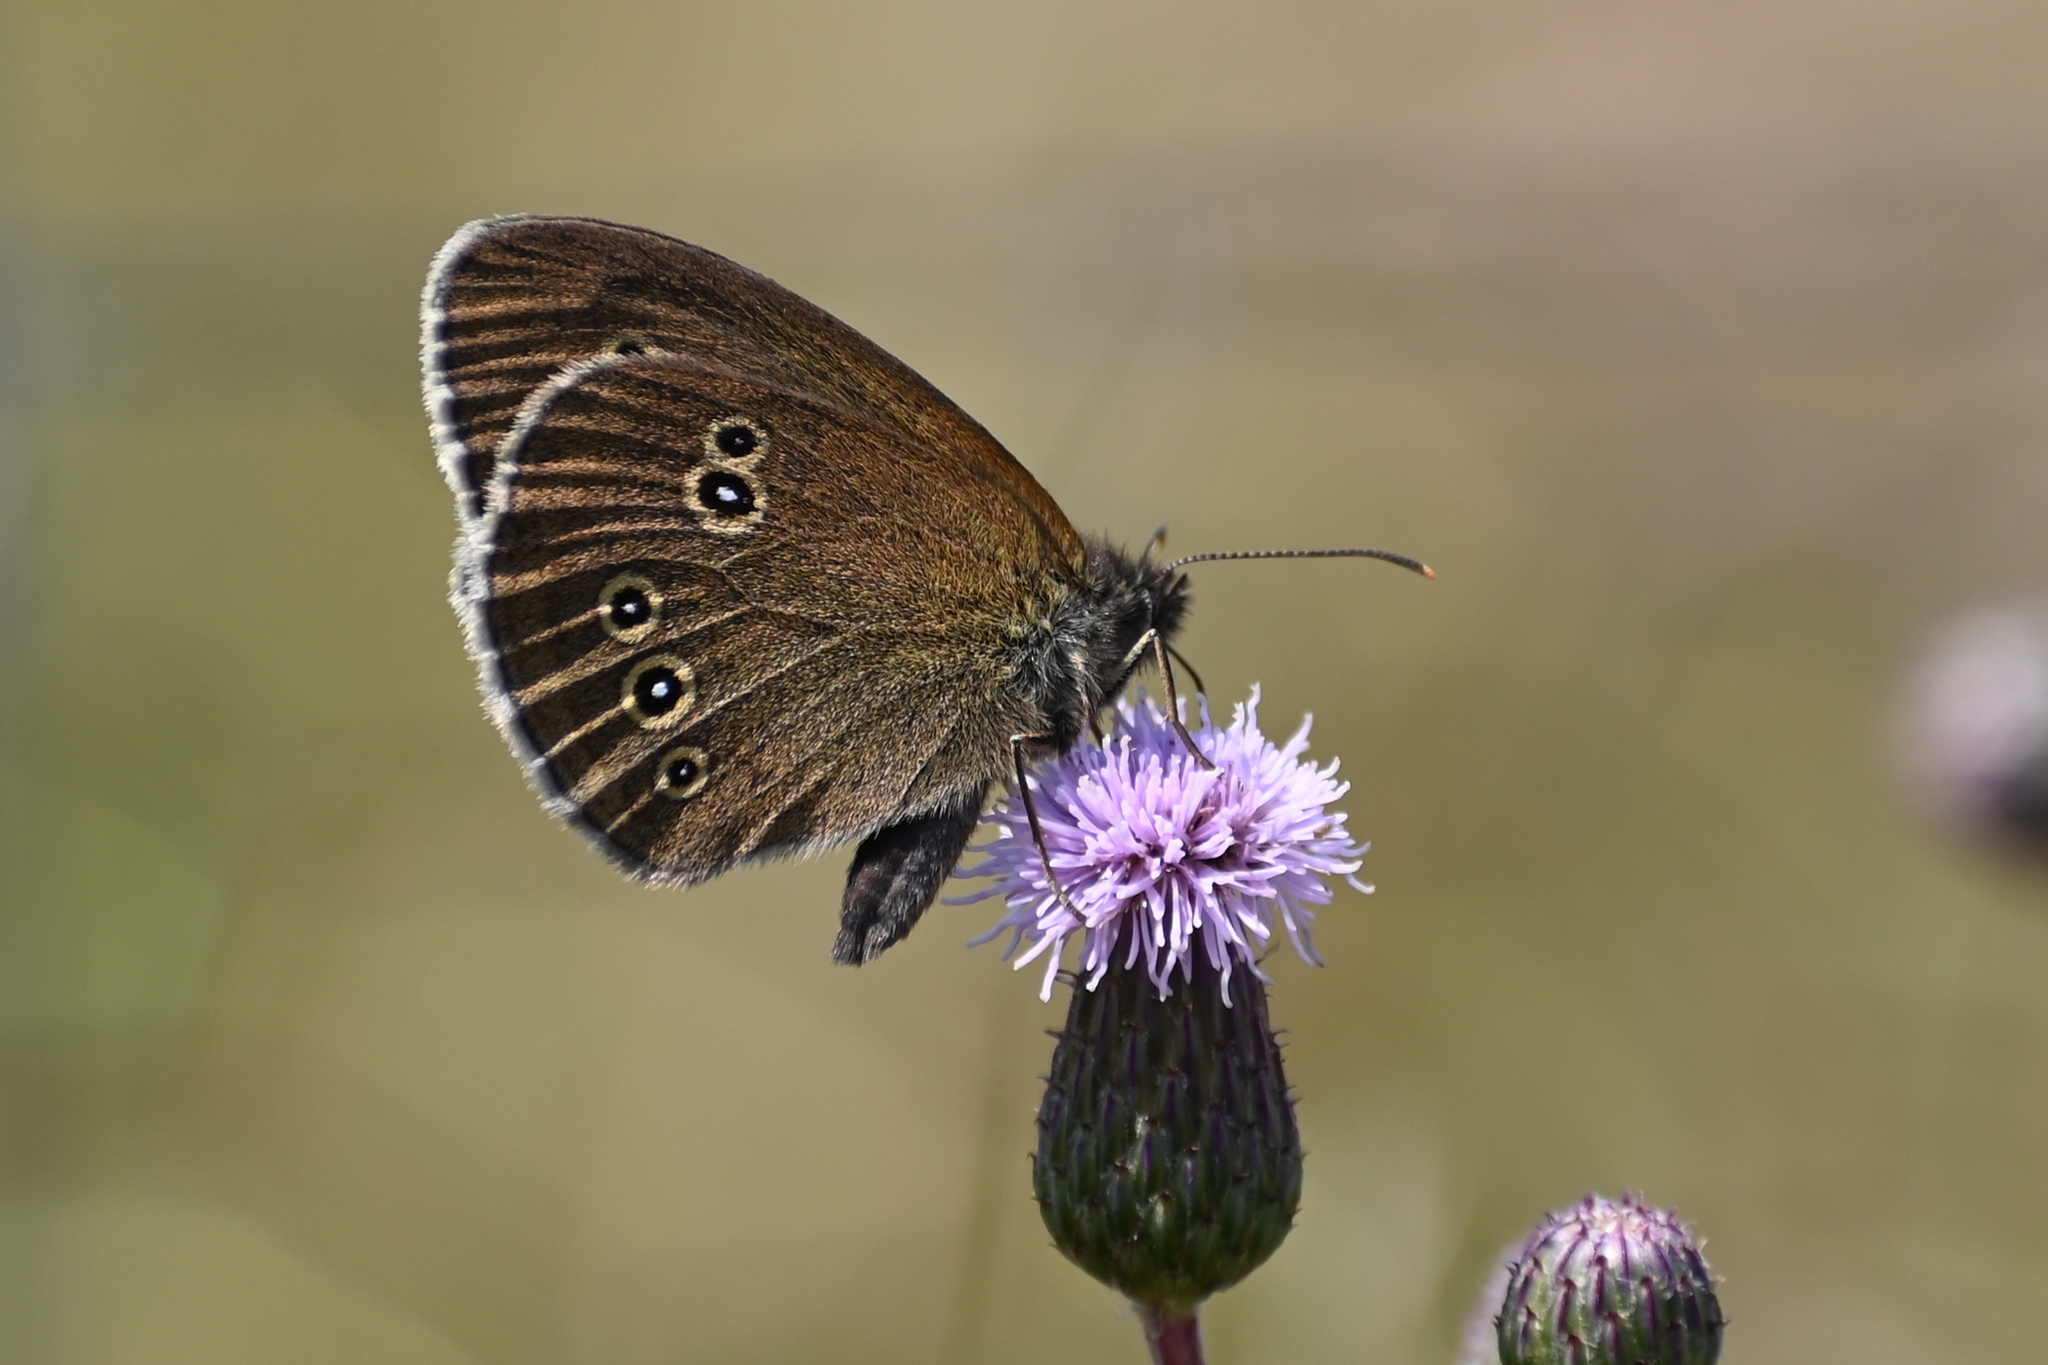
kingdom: Animalia
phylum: Arthropoda
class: Insecta
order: Lepidoptera
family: Nymphalidae
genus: Aphantopus
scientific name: Aphantopus hyperantus
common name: Ringlet
